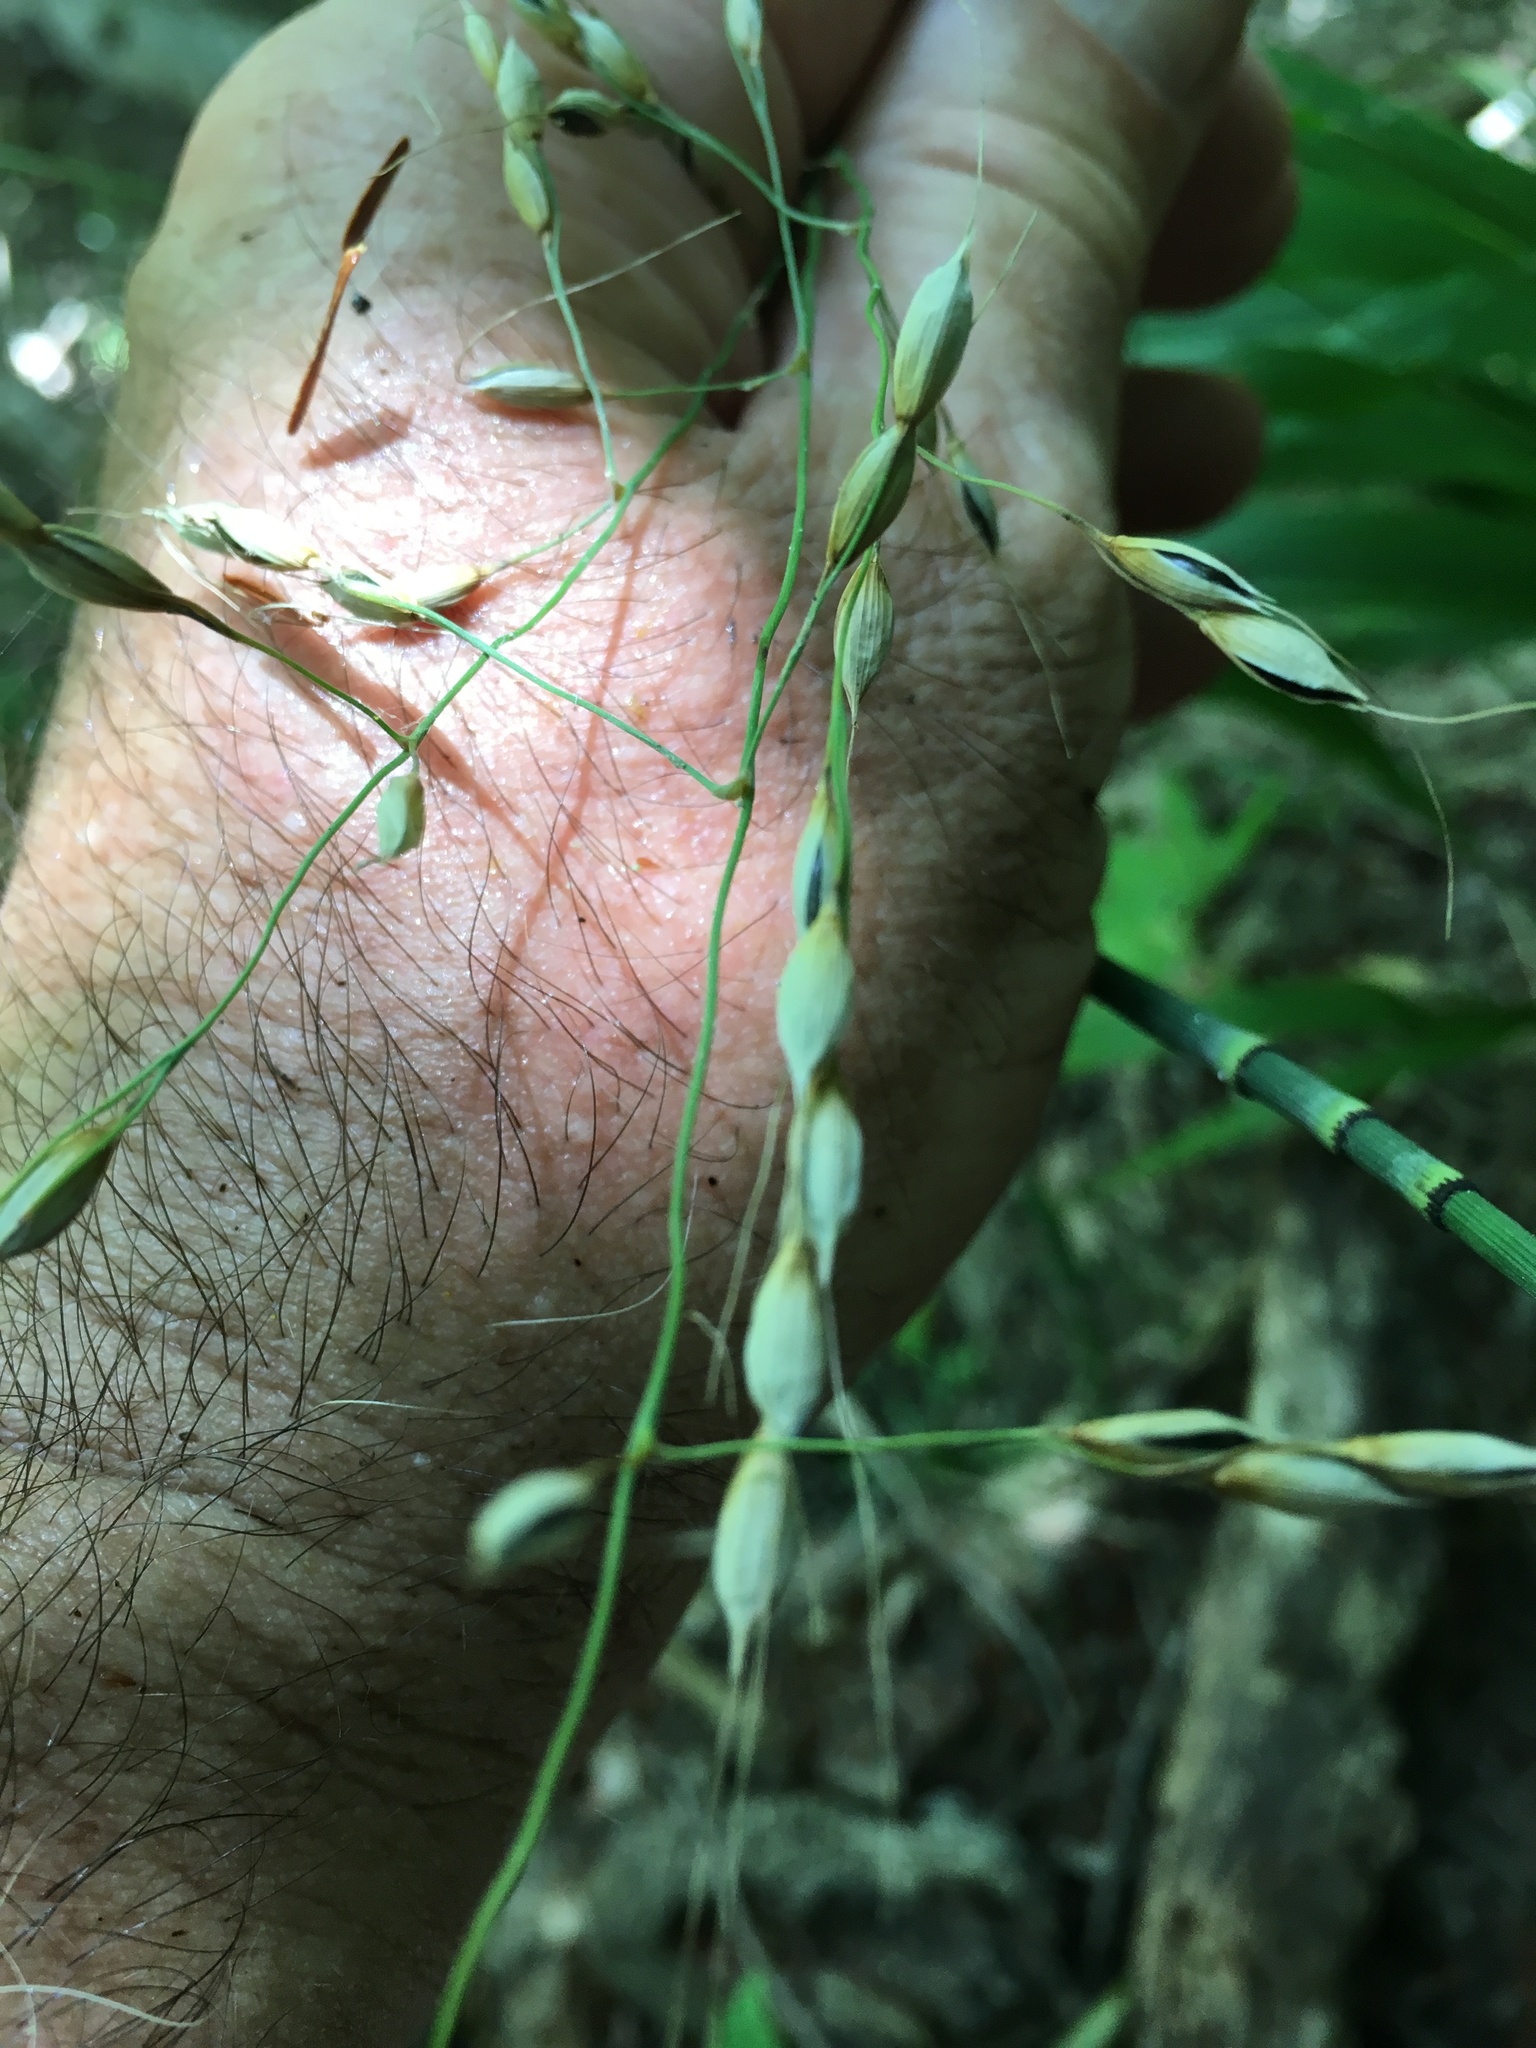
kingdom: Plantae
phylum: Tracheophyta
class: Liliopsida
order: Poales
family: Poaceae
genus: Patis
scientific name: Patis racemosa
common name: Black-fruited mountain rice
